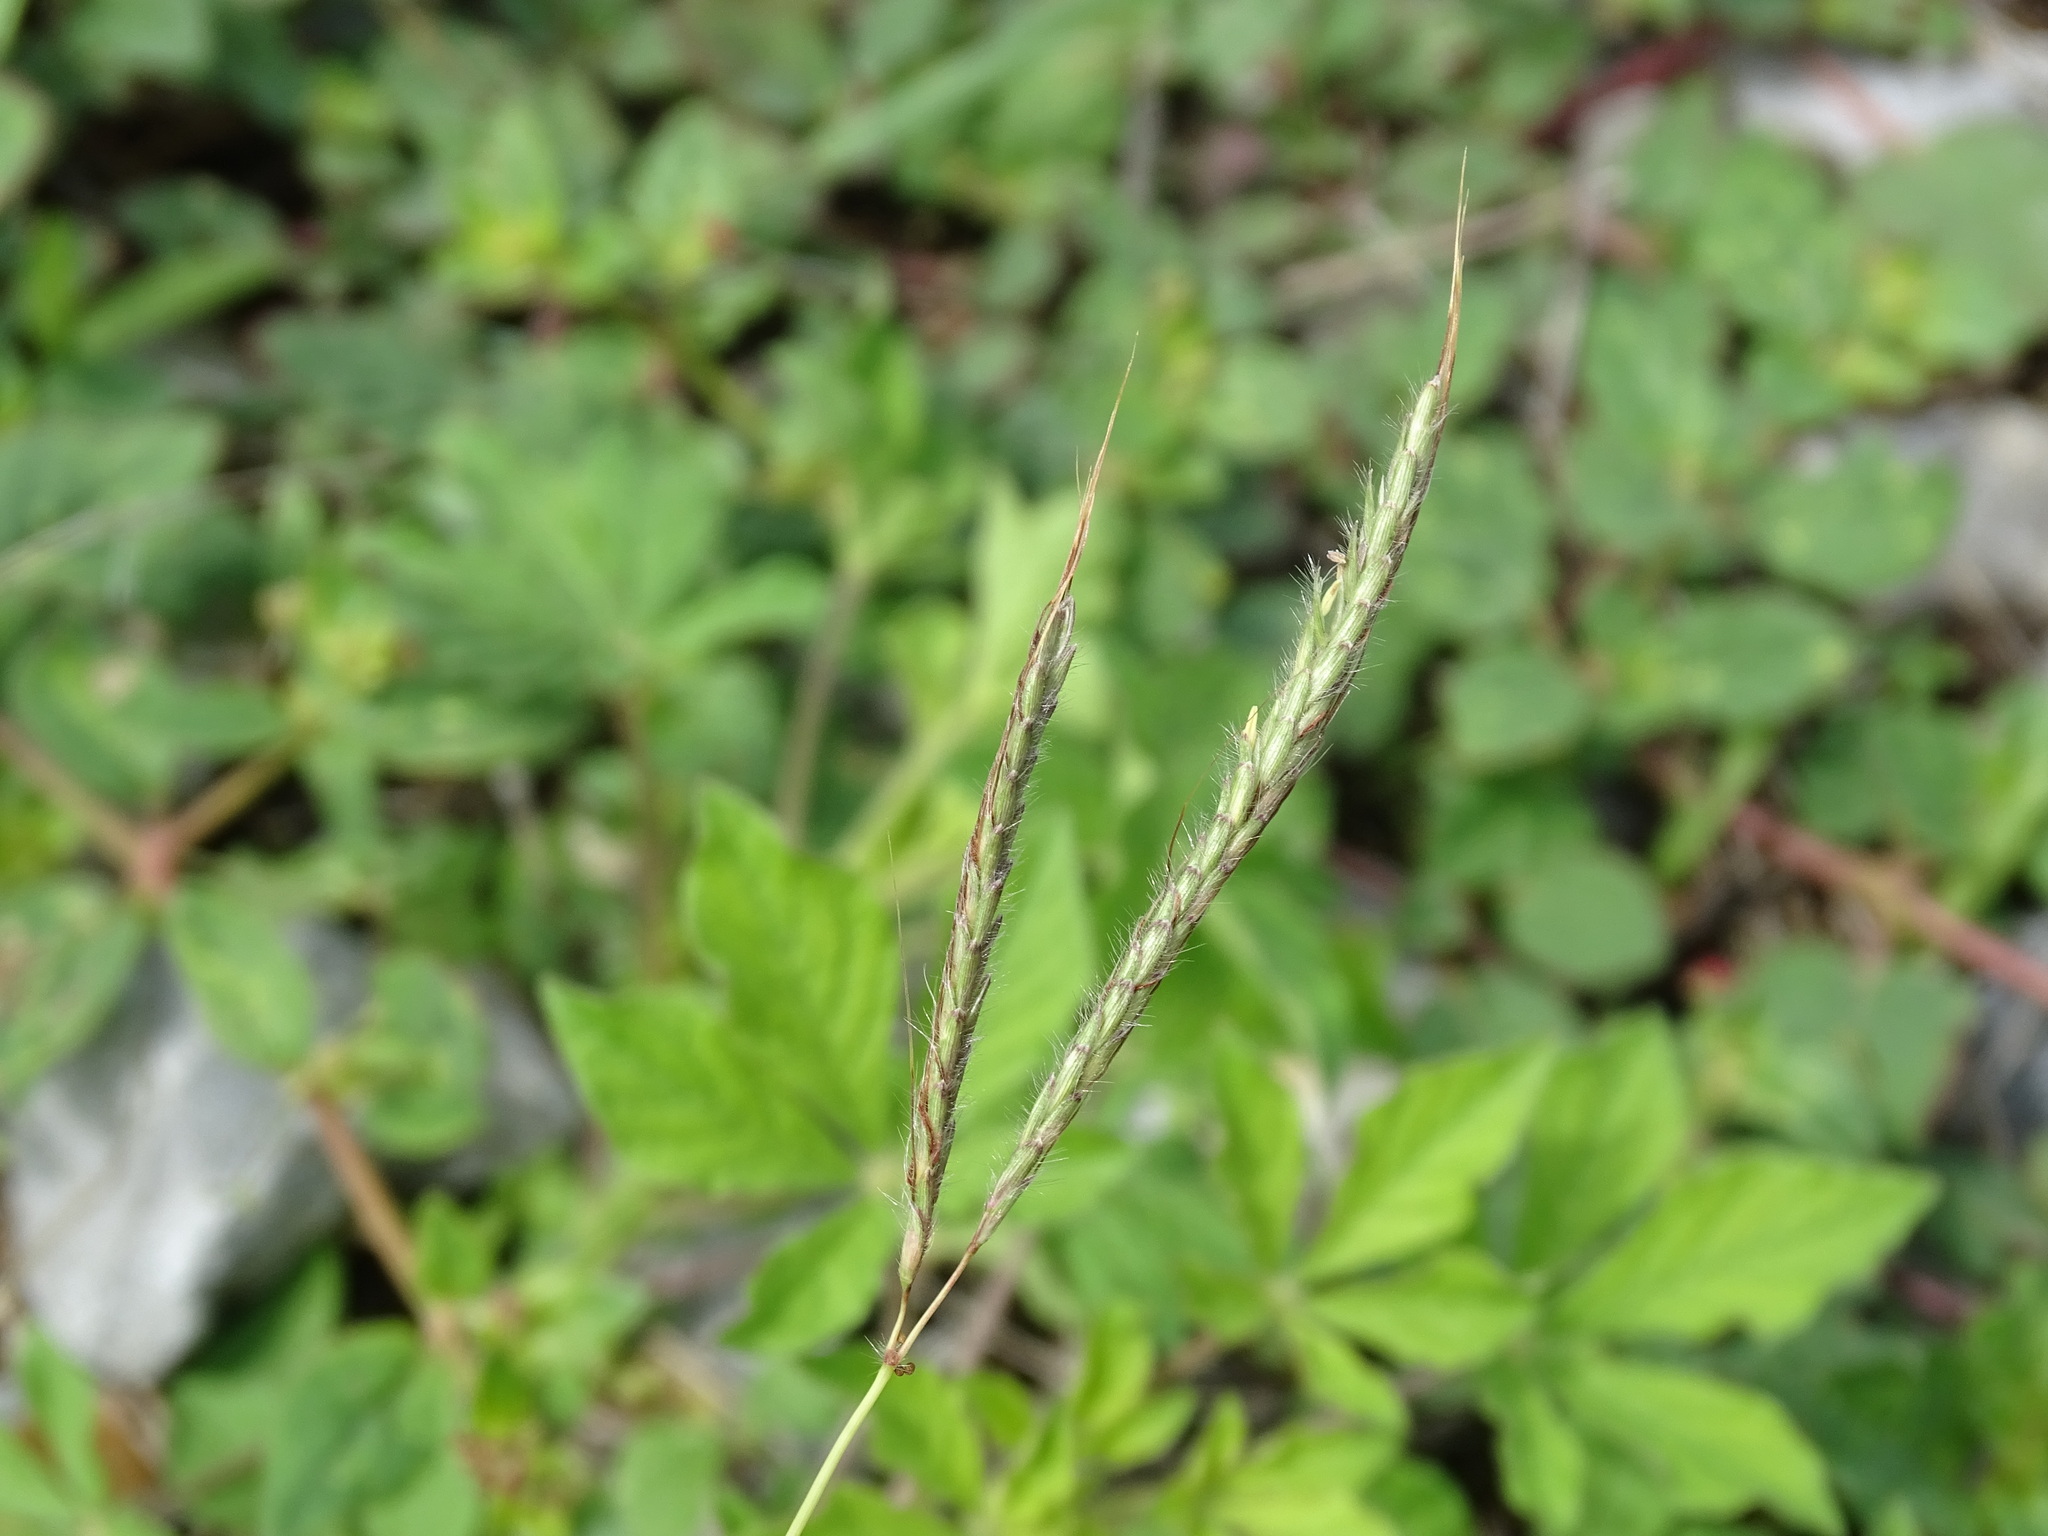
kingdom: Plantae
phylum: Tracheophyta
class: Liliopsida
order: Poales
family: Poaceae
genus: Dichanthium
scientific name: Dichanthium annulatum
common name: Kleberg's bluestem
